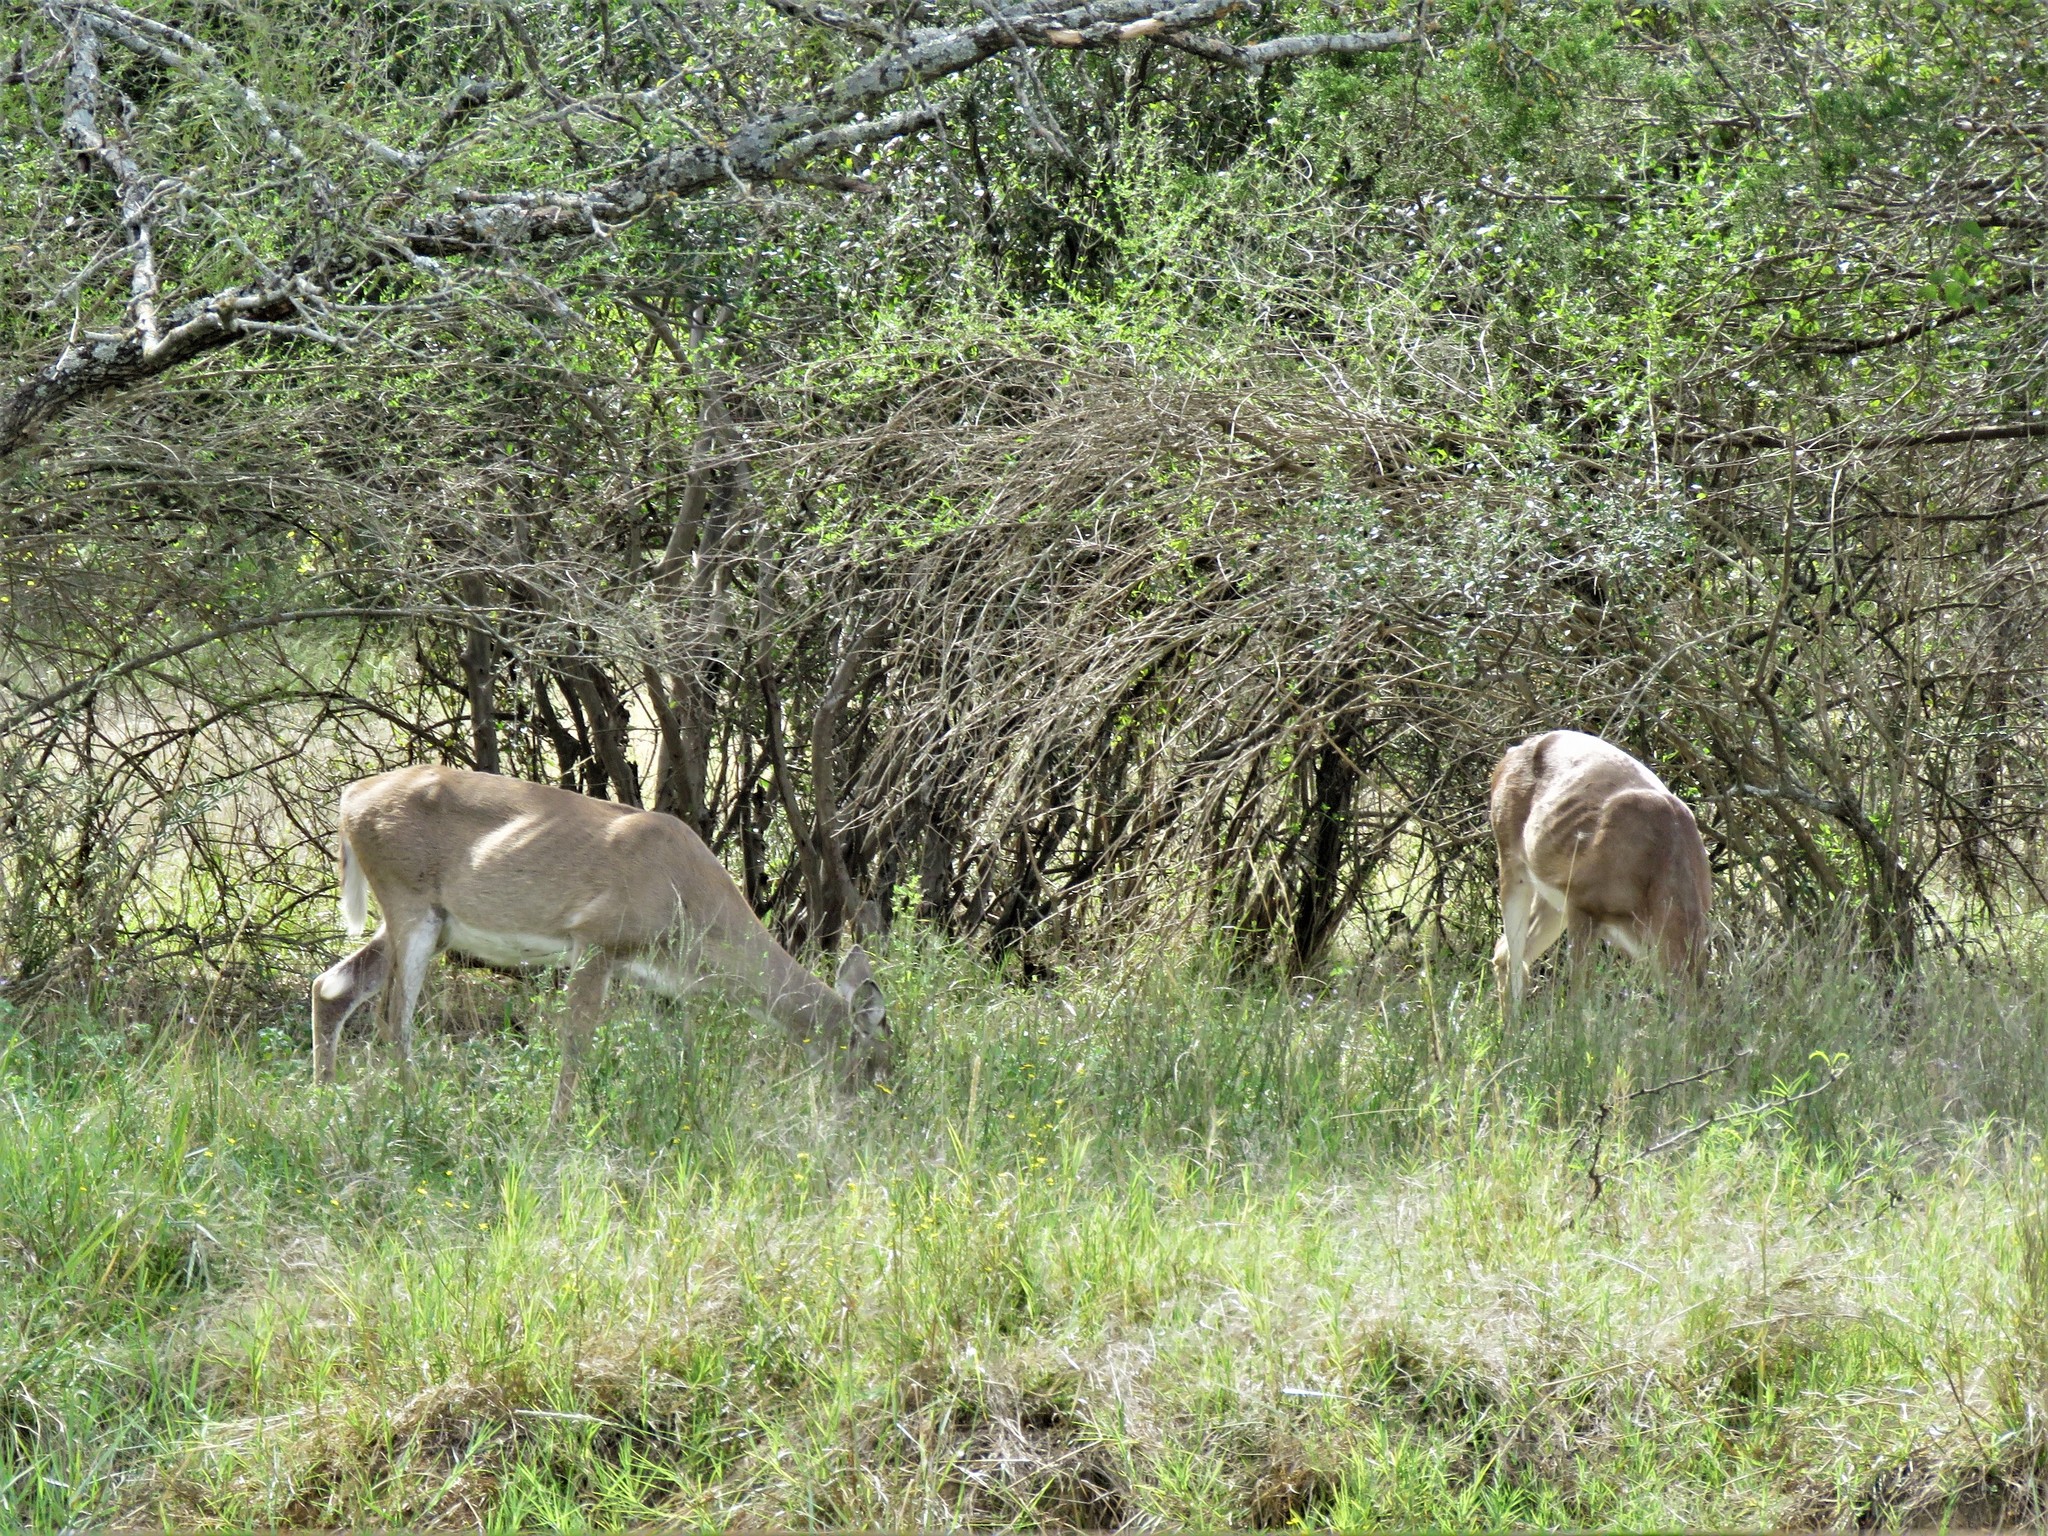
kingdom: Animalia
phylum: Chordata
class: Mammalia
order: Artiodactyla
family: Cervidae
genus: Odocoileus
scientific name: Odocoileus virginianus
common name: White-tailed deer
